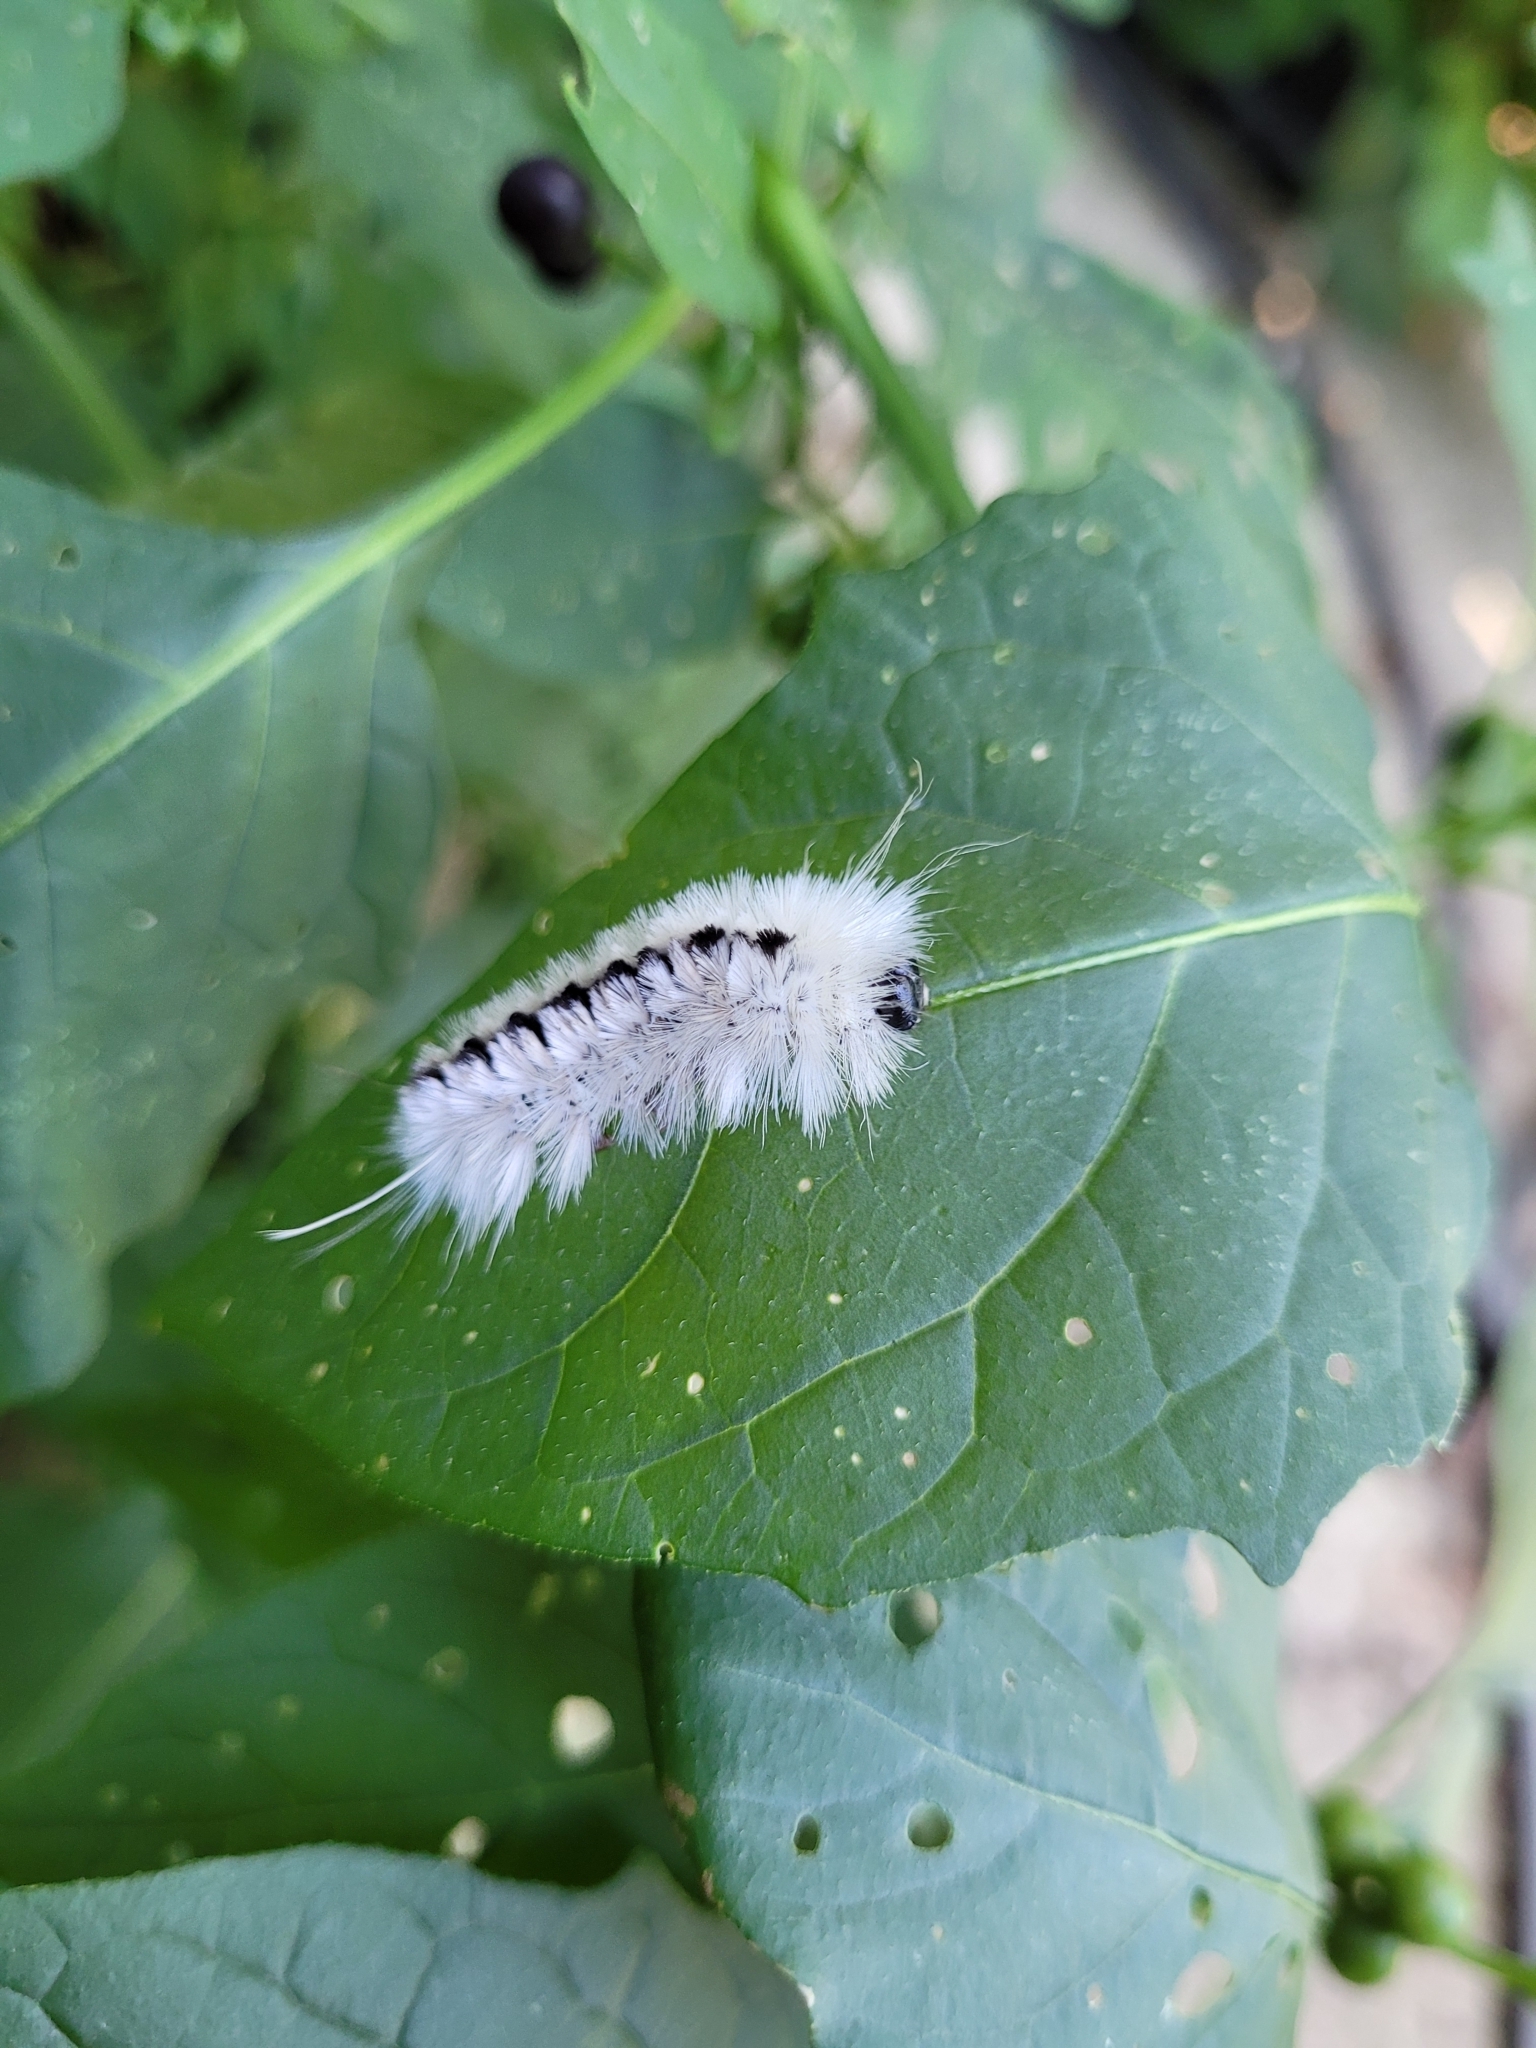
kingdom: Animalia
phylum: Arthropoda
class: Insecta
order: Lepidoptera
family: Erebidae
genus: Lophocampa
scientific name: Lophocampa caryae
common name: Hickory tussock moth
